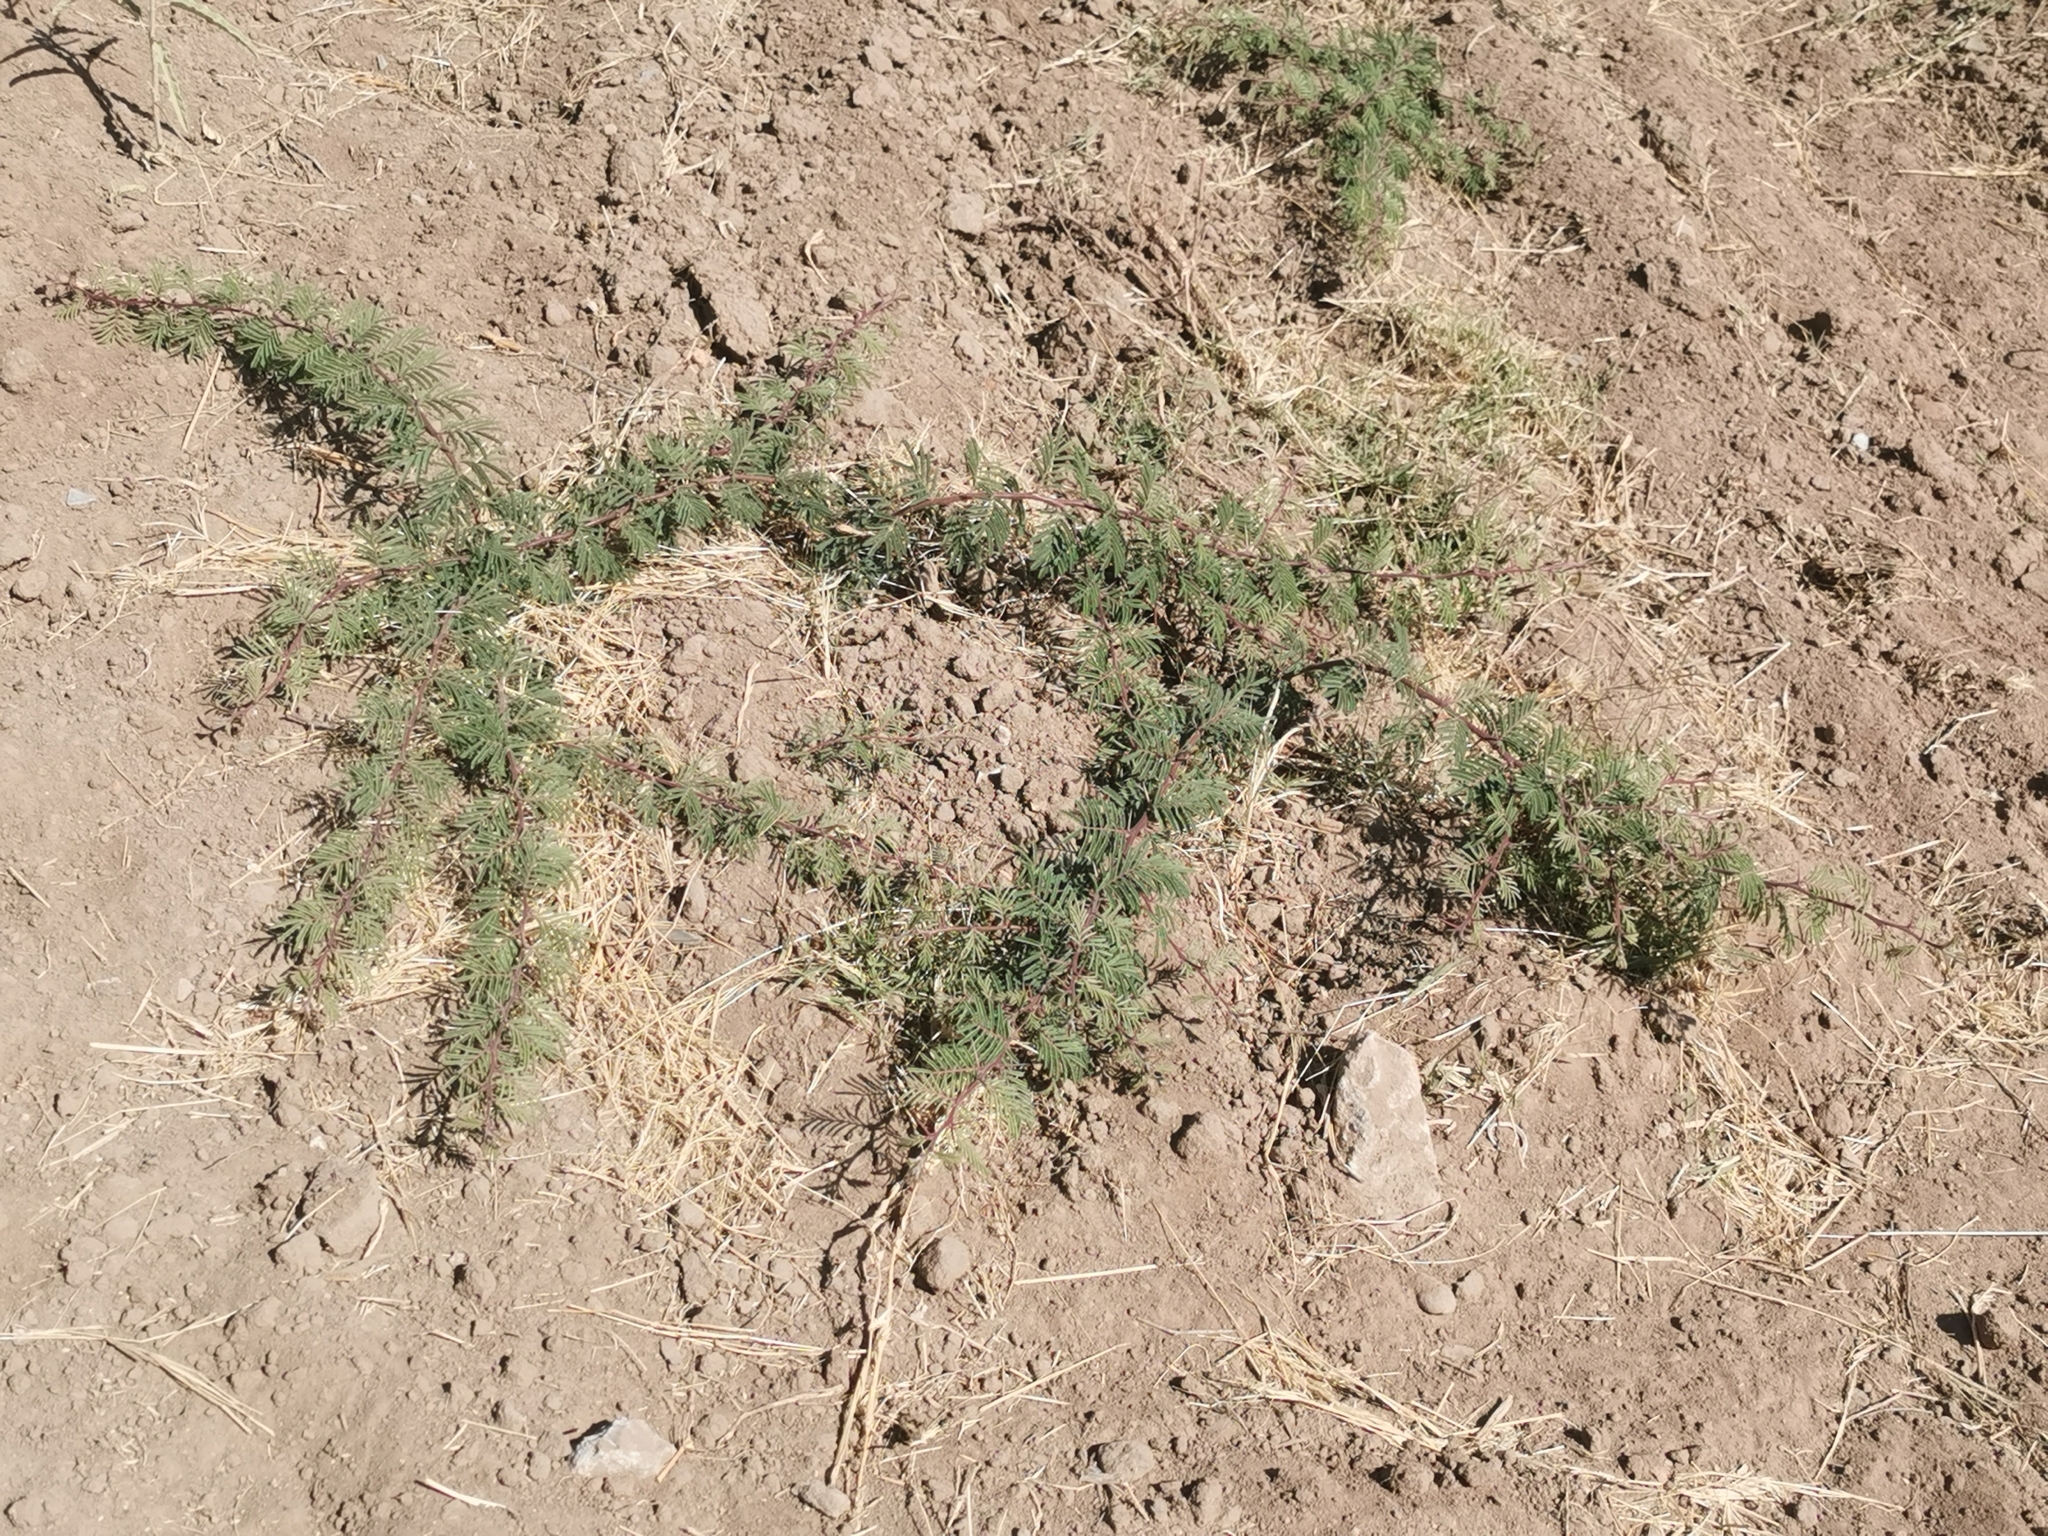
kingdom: Plantae
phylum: Tracheophyta
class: Magnoliopsida
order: Fabales
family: Fabaceae
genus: Vachellia
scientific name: Vachellia schaffneri
